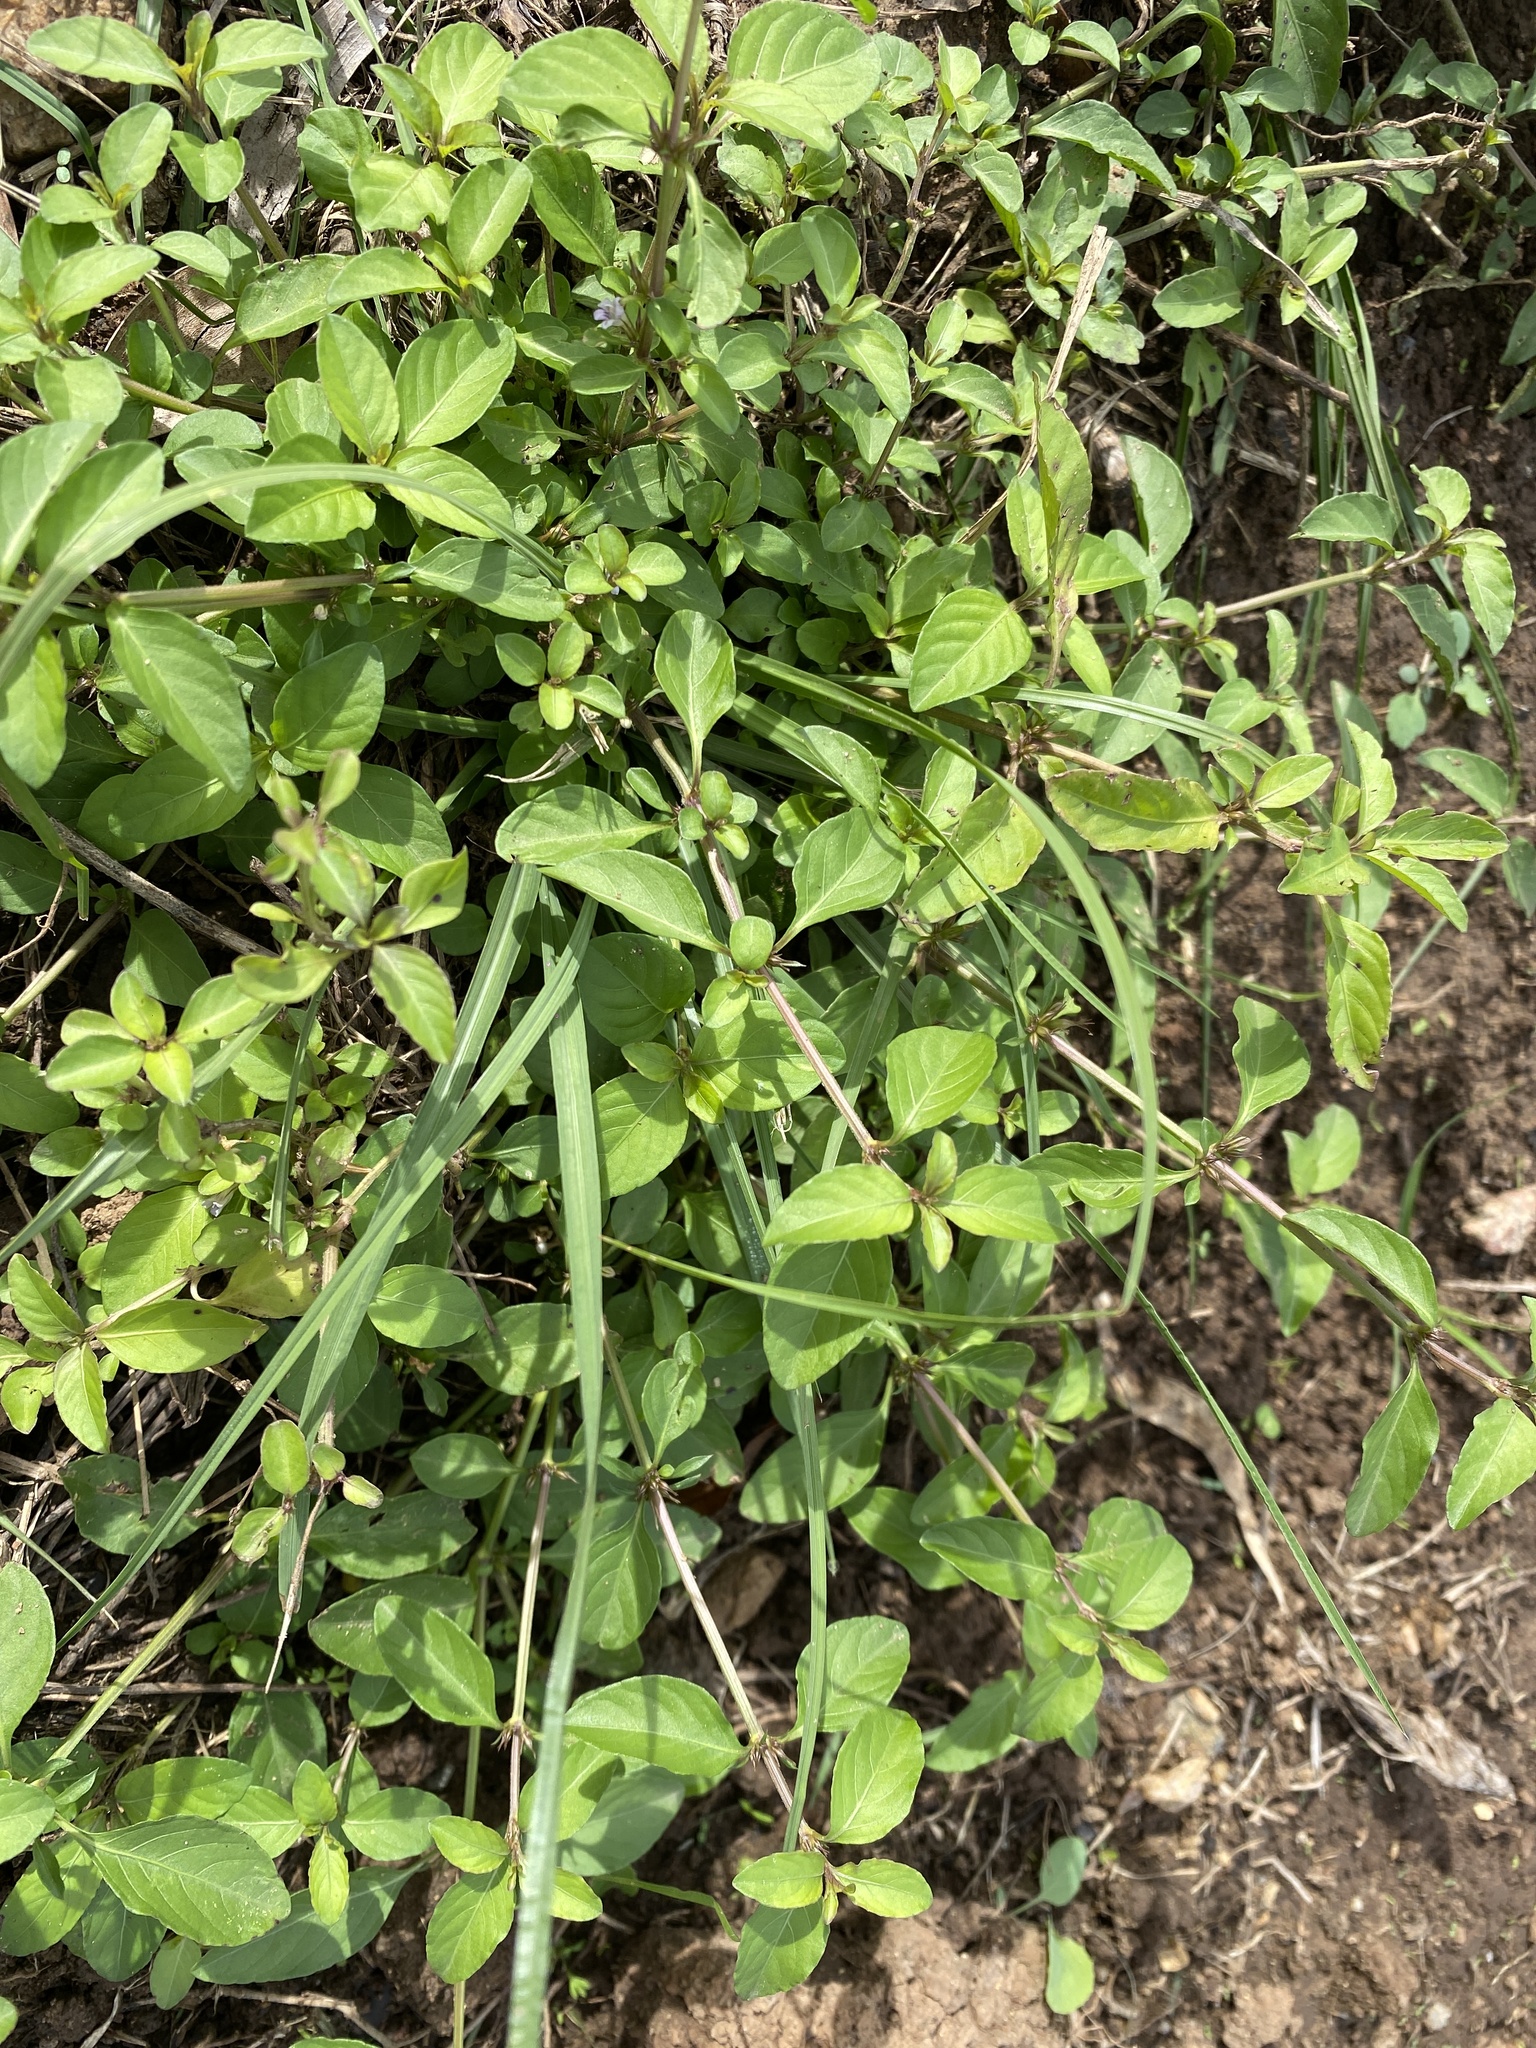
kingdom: Plantae
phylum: Tracheophyta
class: Magnoliopsida
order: Lamiales
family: Acanthaceae
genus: Hygrophila
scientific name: Hygrophila erecta
